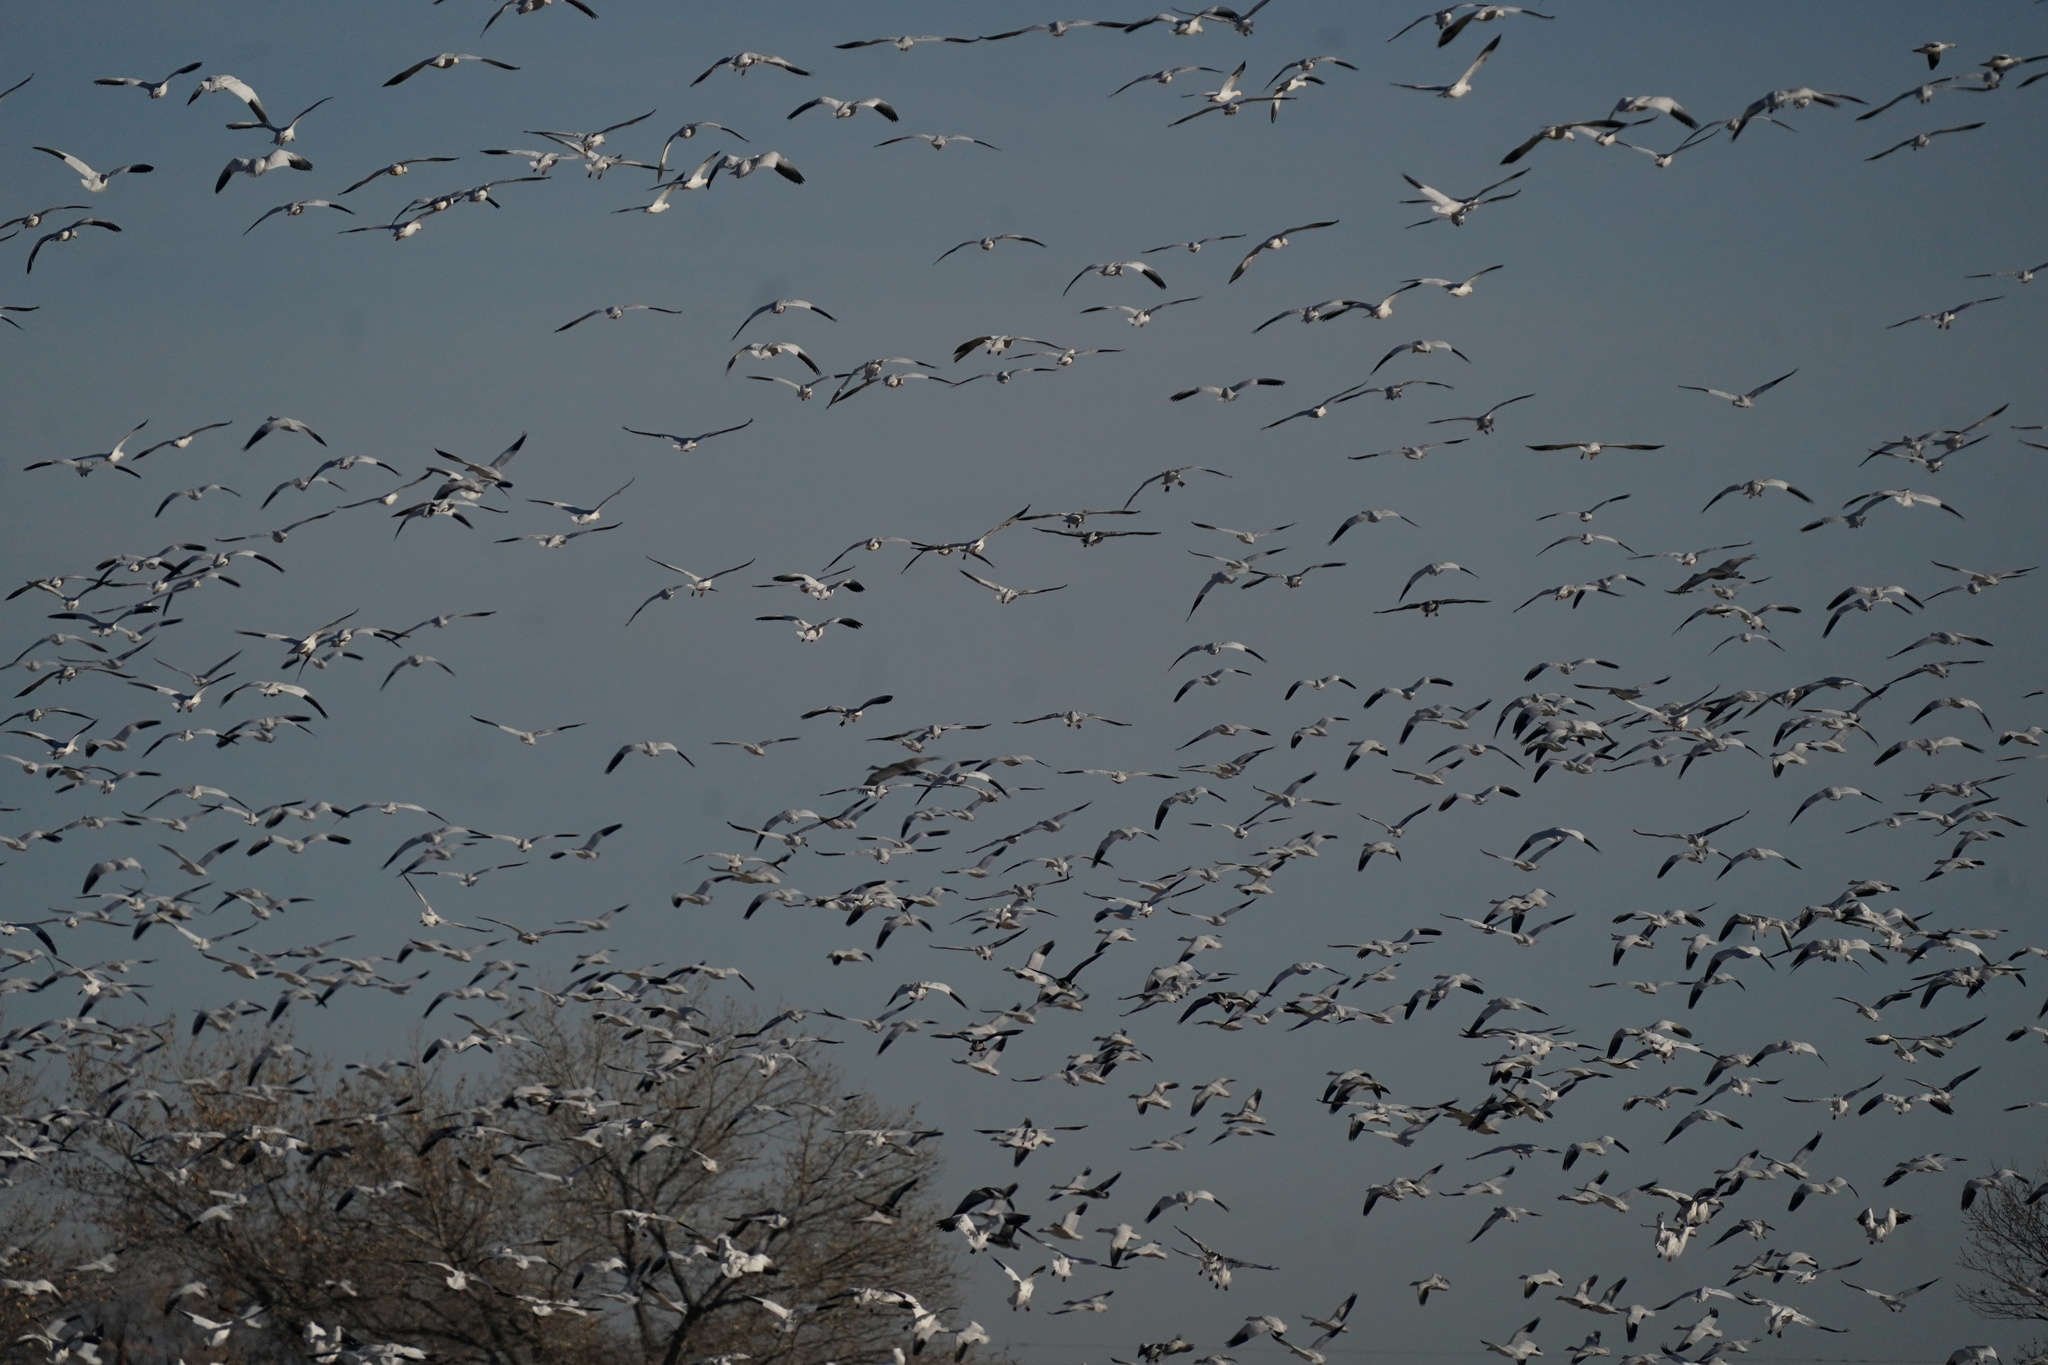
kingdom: Animalia
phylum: Chordata
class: Aves
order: Anseriformes
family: Anatidae
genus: Anser
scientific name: Anser caerulescens
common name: Snow goose
